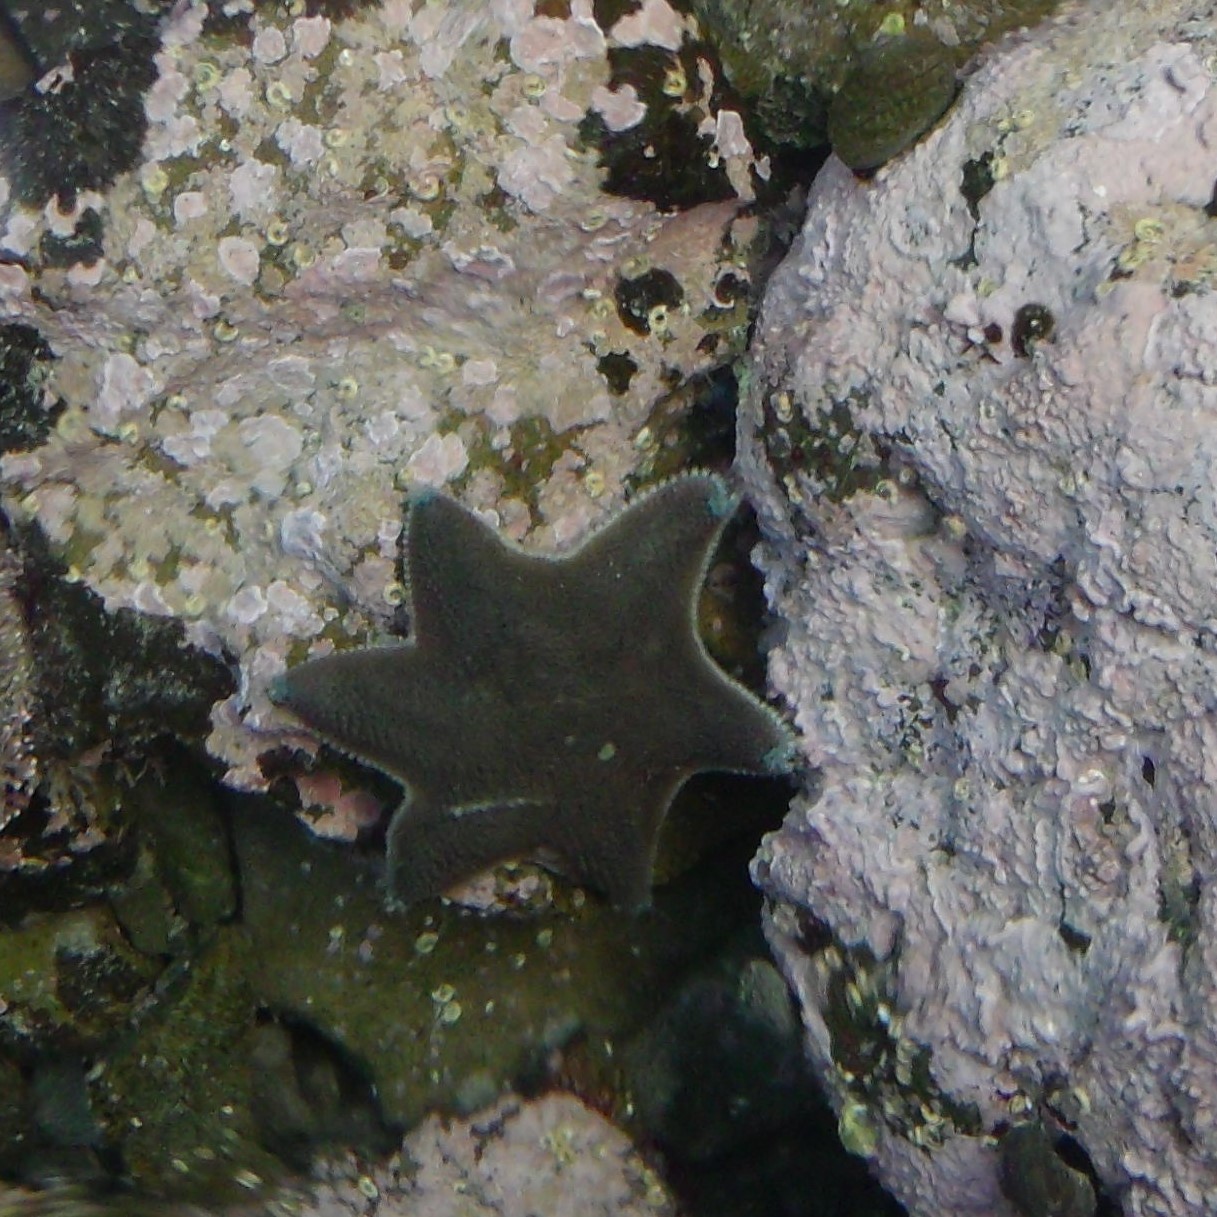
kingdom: Animalia
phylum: Echinodermata
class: Asteroidea
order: Valvatida
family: Asterinidae
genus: Patiriella
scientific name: Patiriella regularis
